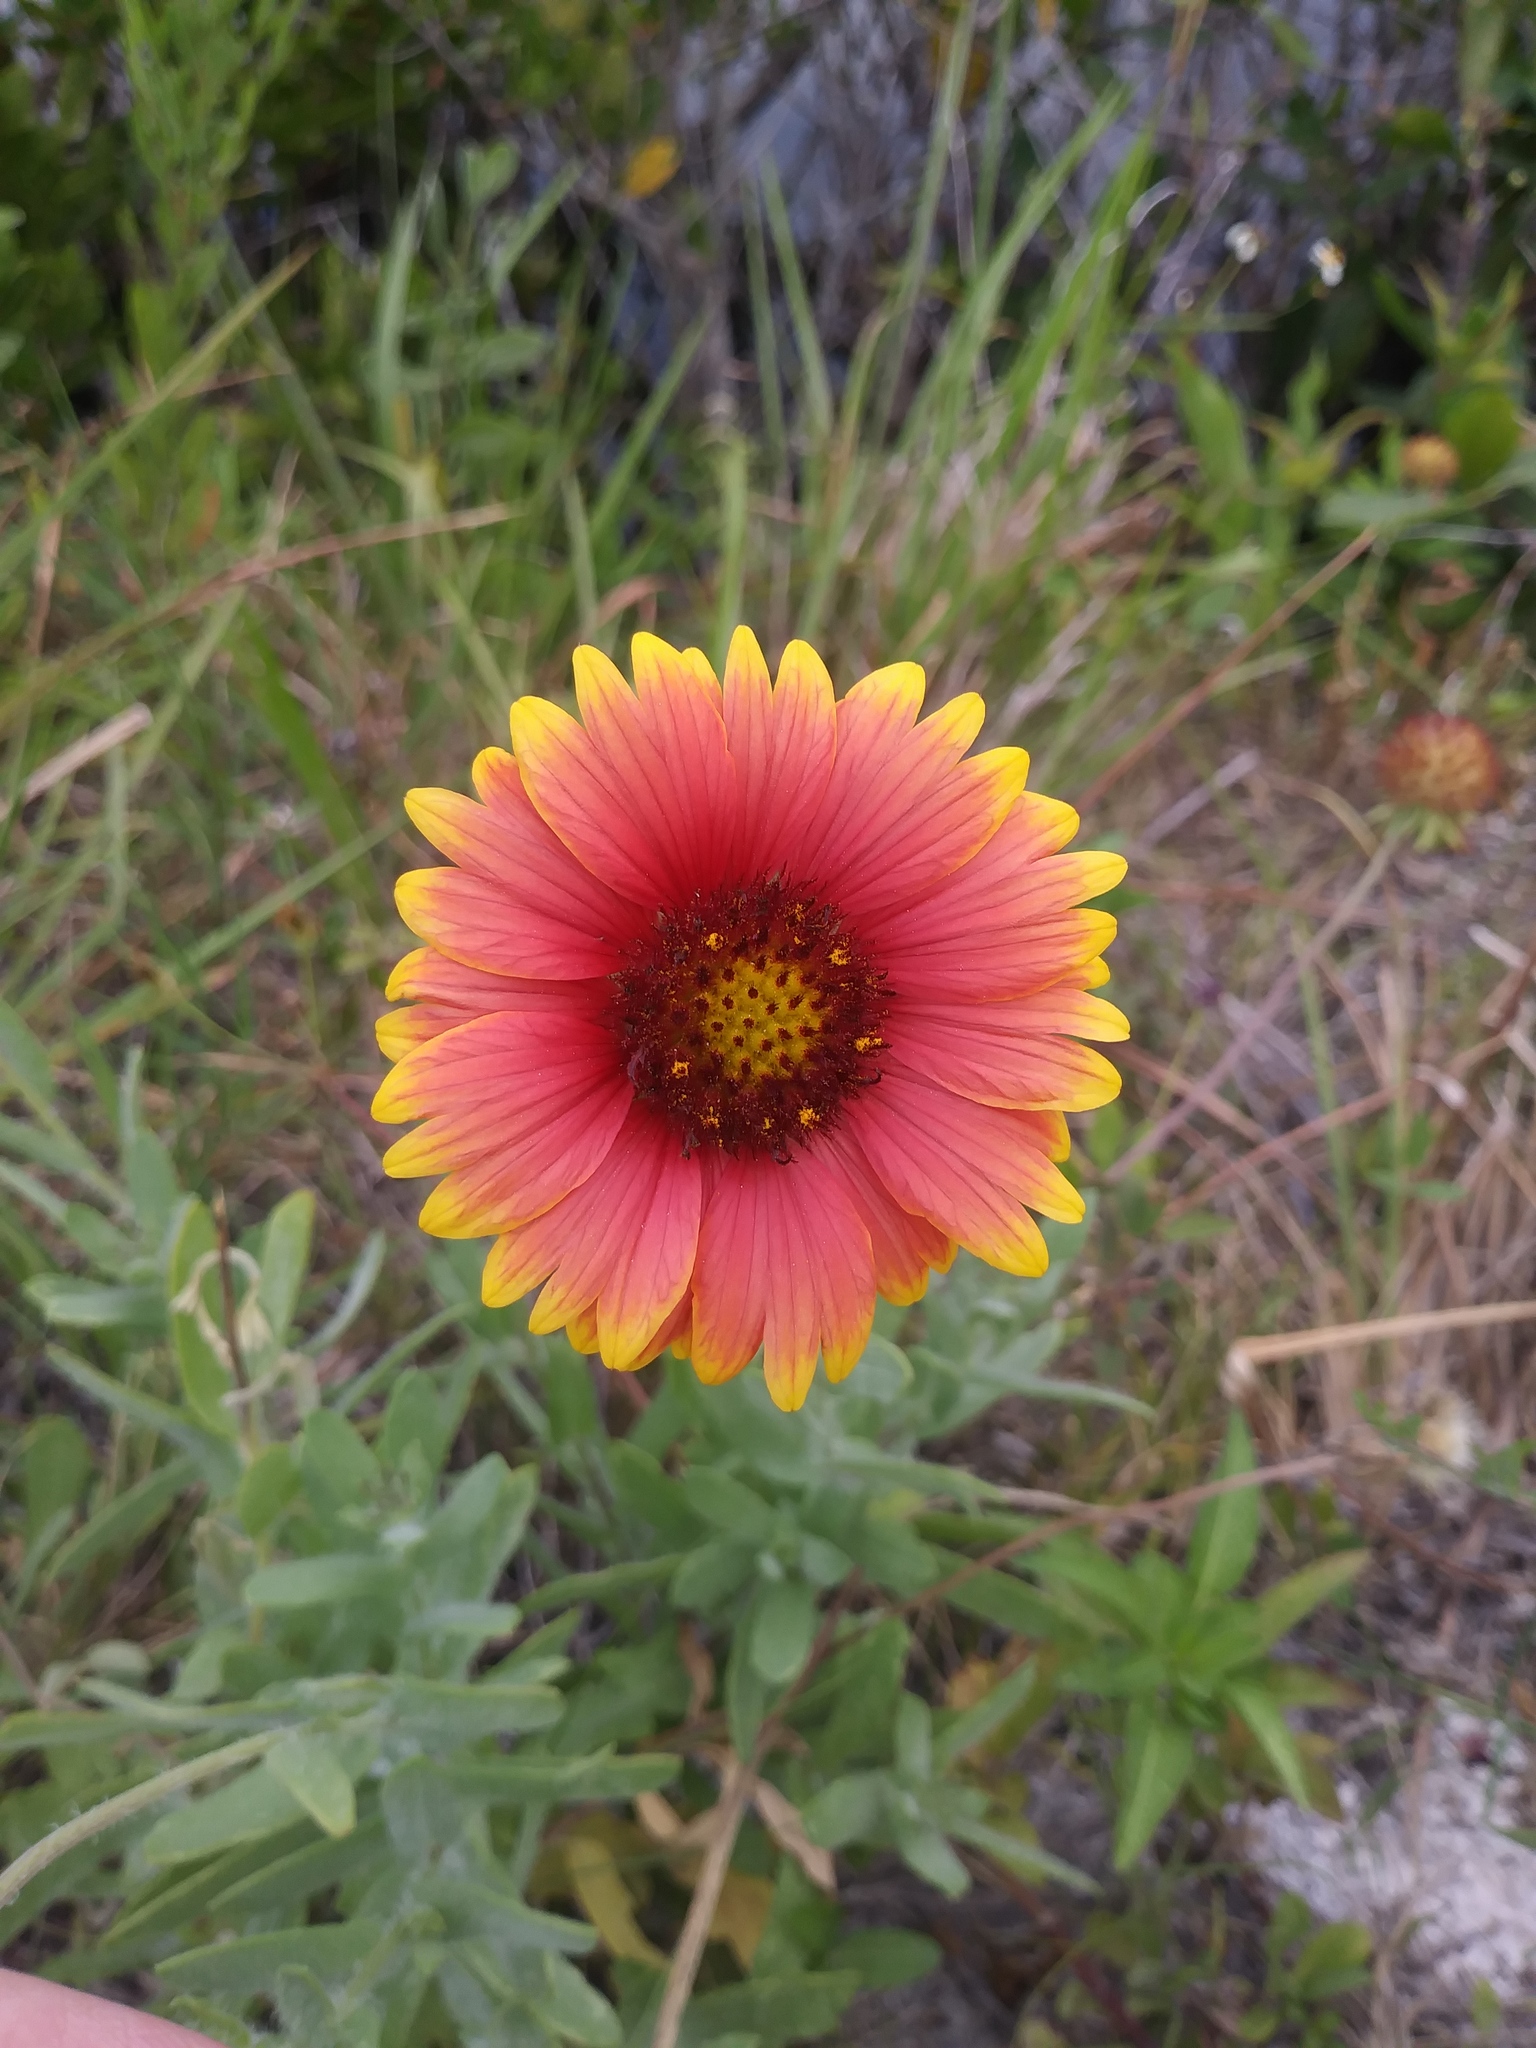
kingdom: Plantae
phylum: Tracheophyta
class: Magnoliopsida
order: Asterales
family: Asteraceae
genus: Gaillardia
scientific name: Gaillardia pulchella
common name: Firewheel
